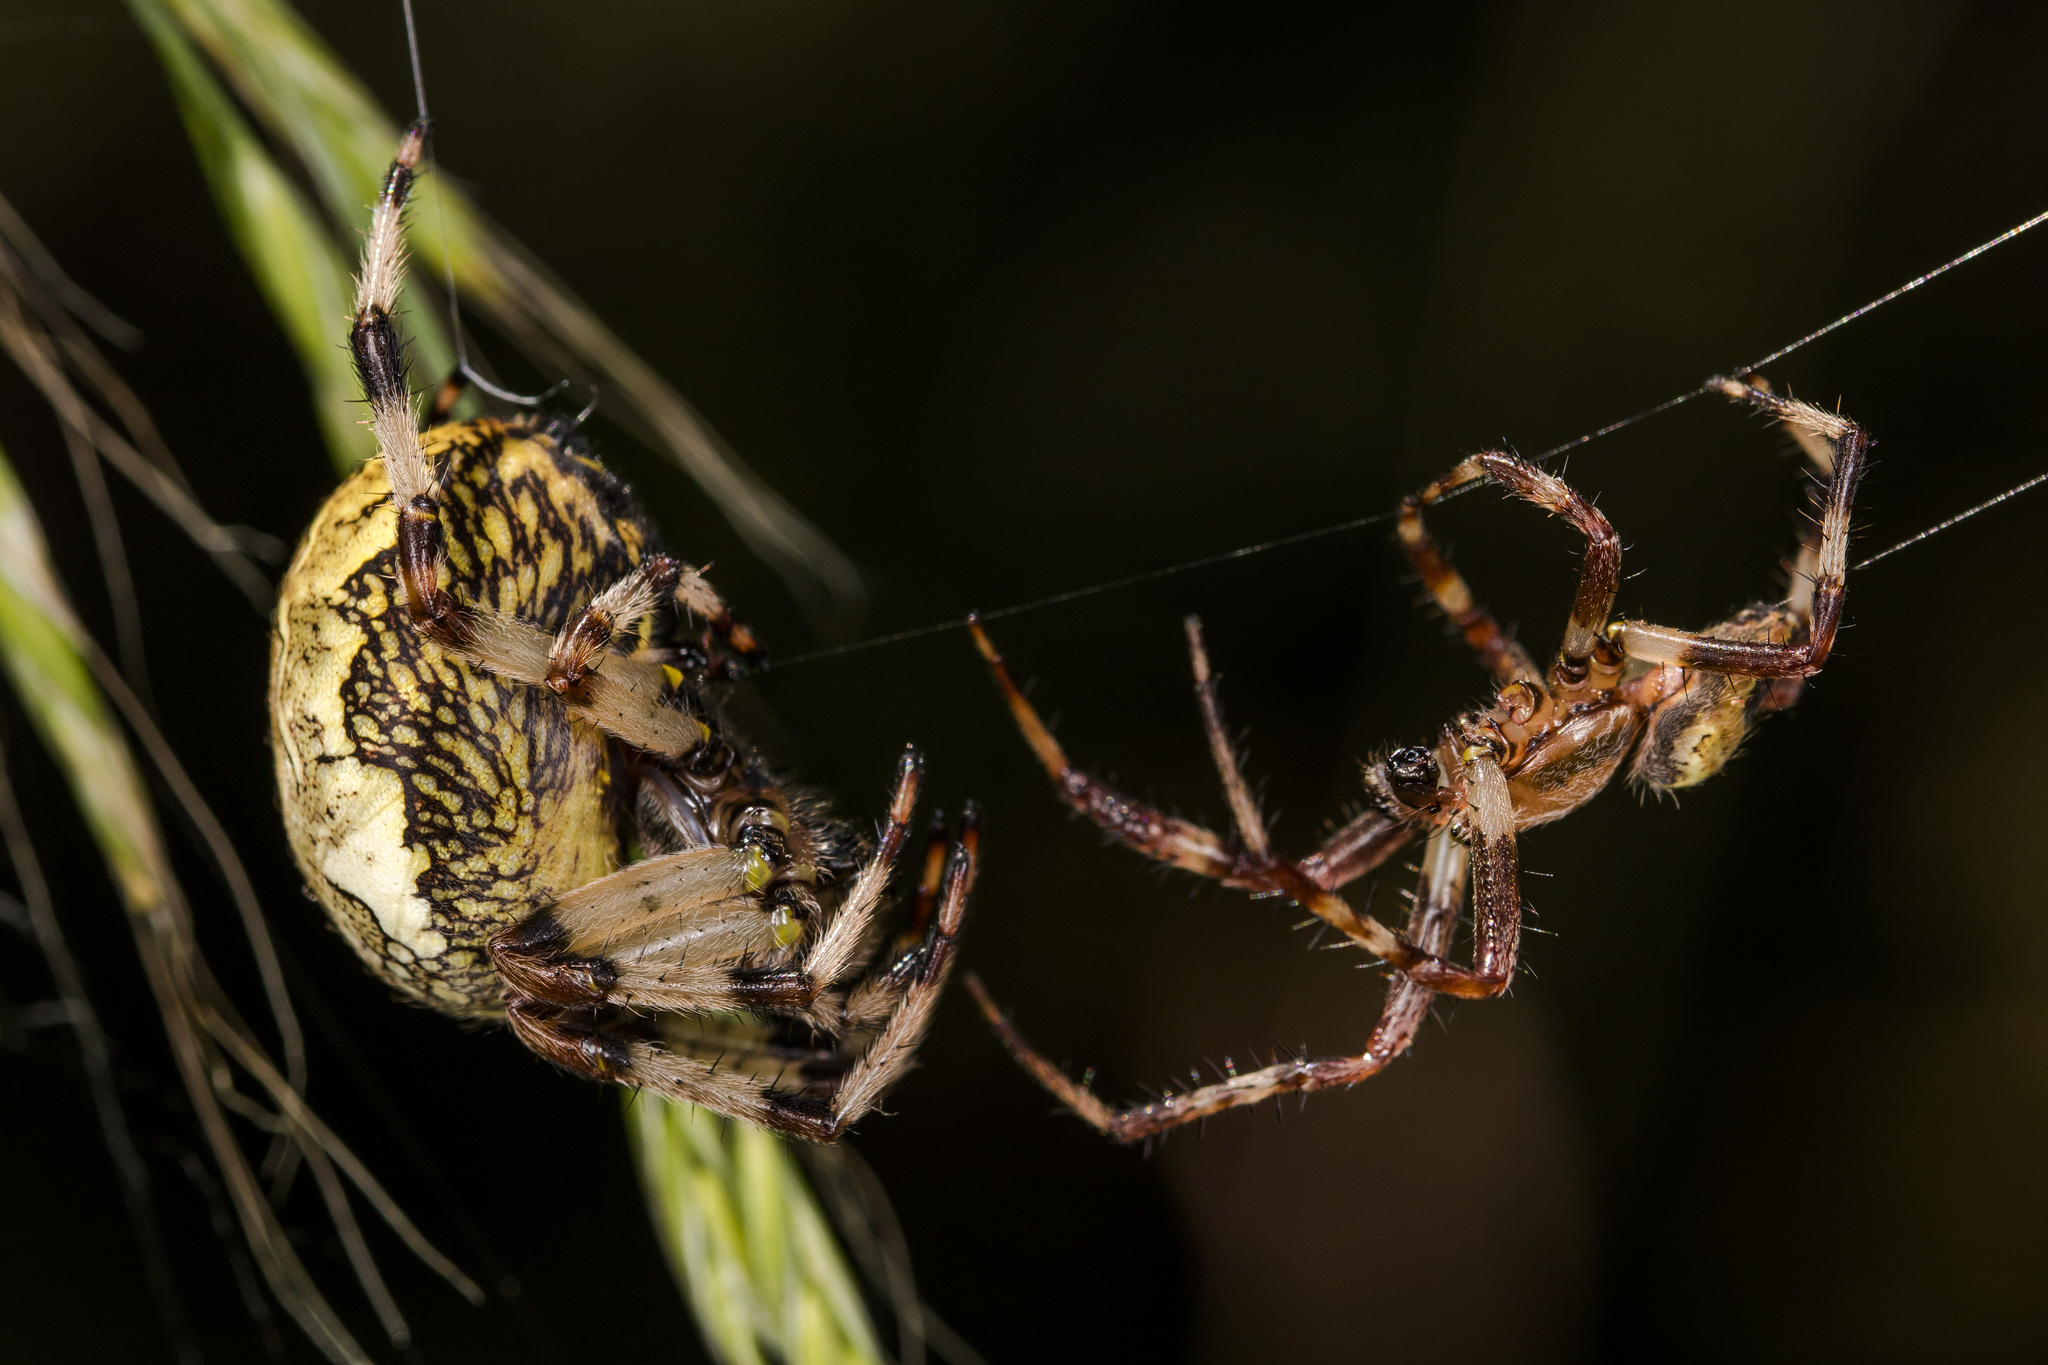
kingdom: Animalia
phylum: Arthropoda
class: Arachnida
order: Araneae
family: Araneidae
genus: Araneus
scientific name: Araneus marmoreus
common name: Marbled orbweaver
